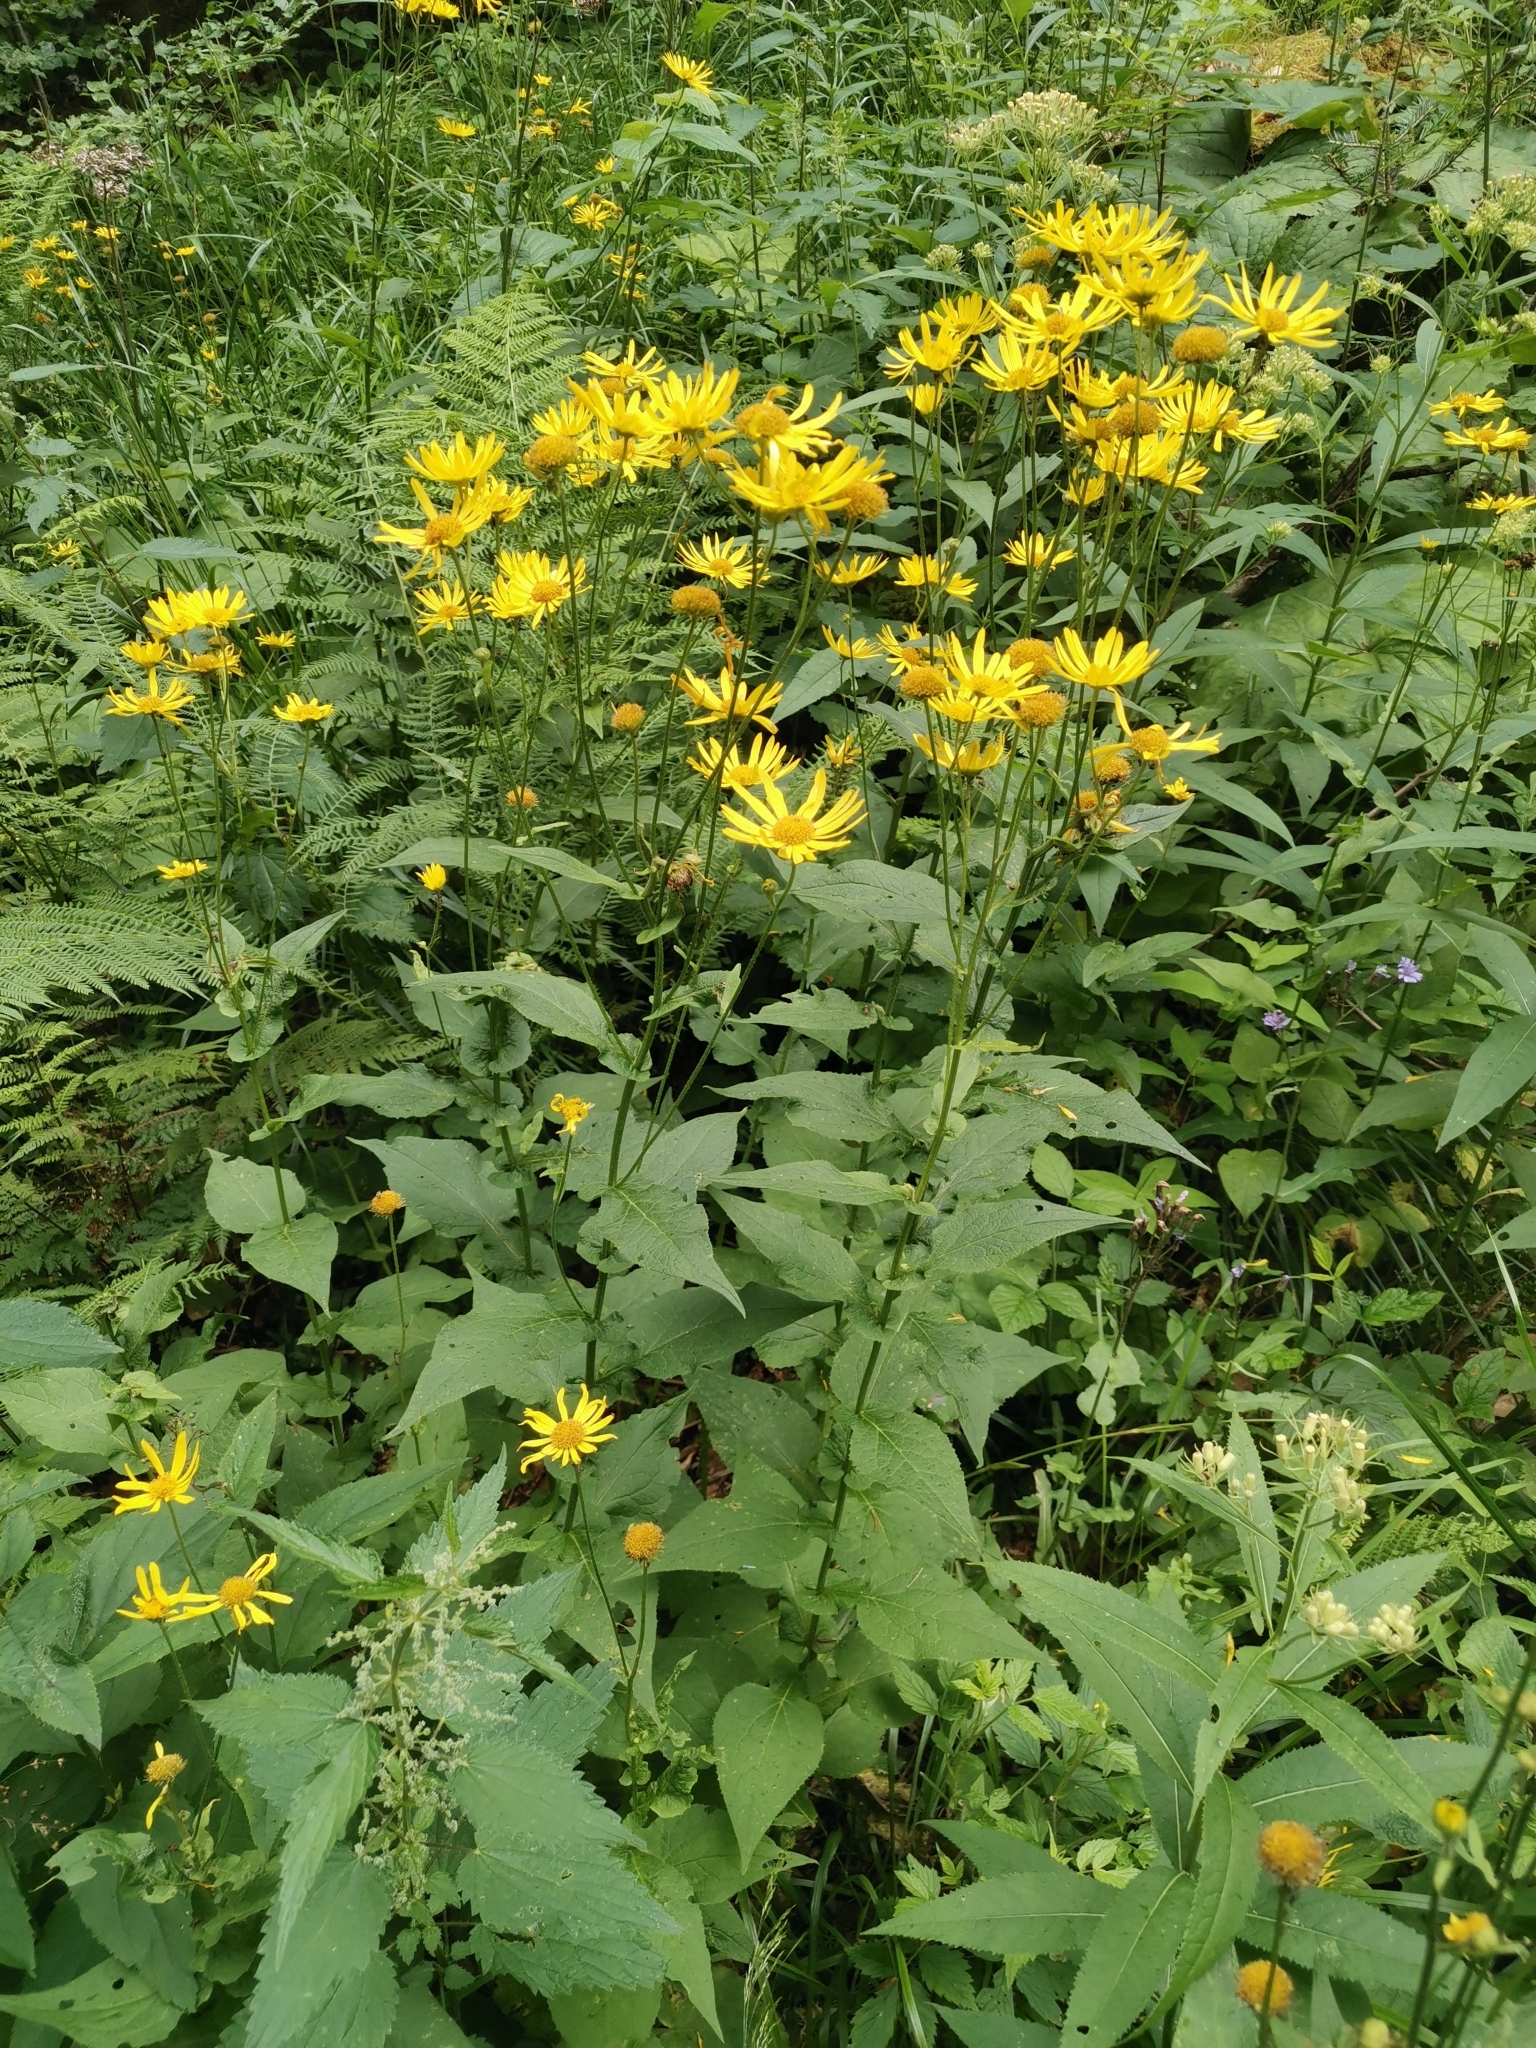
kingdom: Plantae
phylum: Tracheophyta
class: Magnoliopsida
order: Asterales
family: Asteraceae
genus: Doronicum
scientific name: Doronicum austriacum
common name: Austrian leopard's-bane
